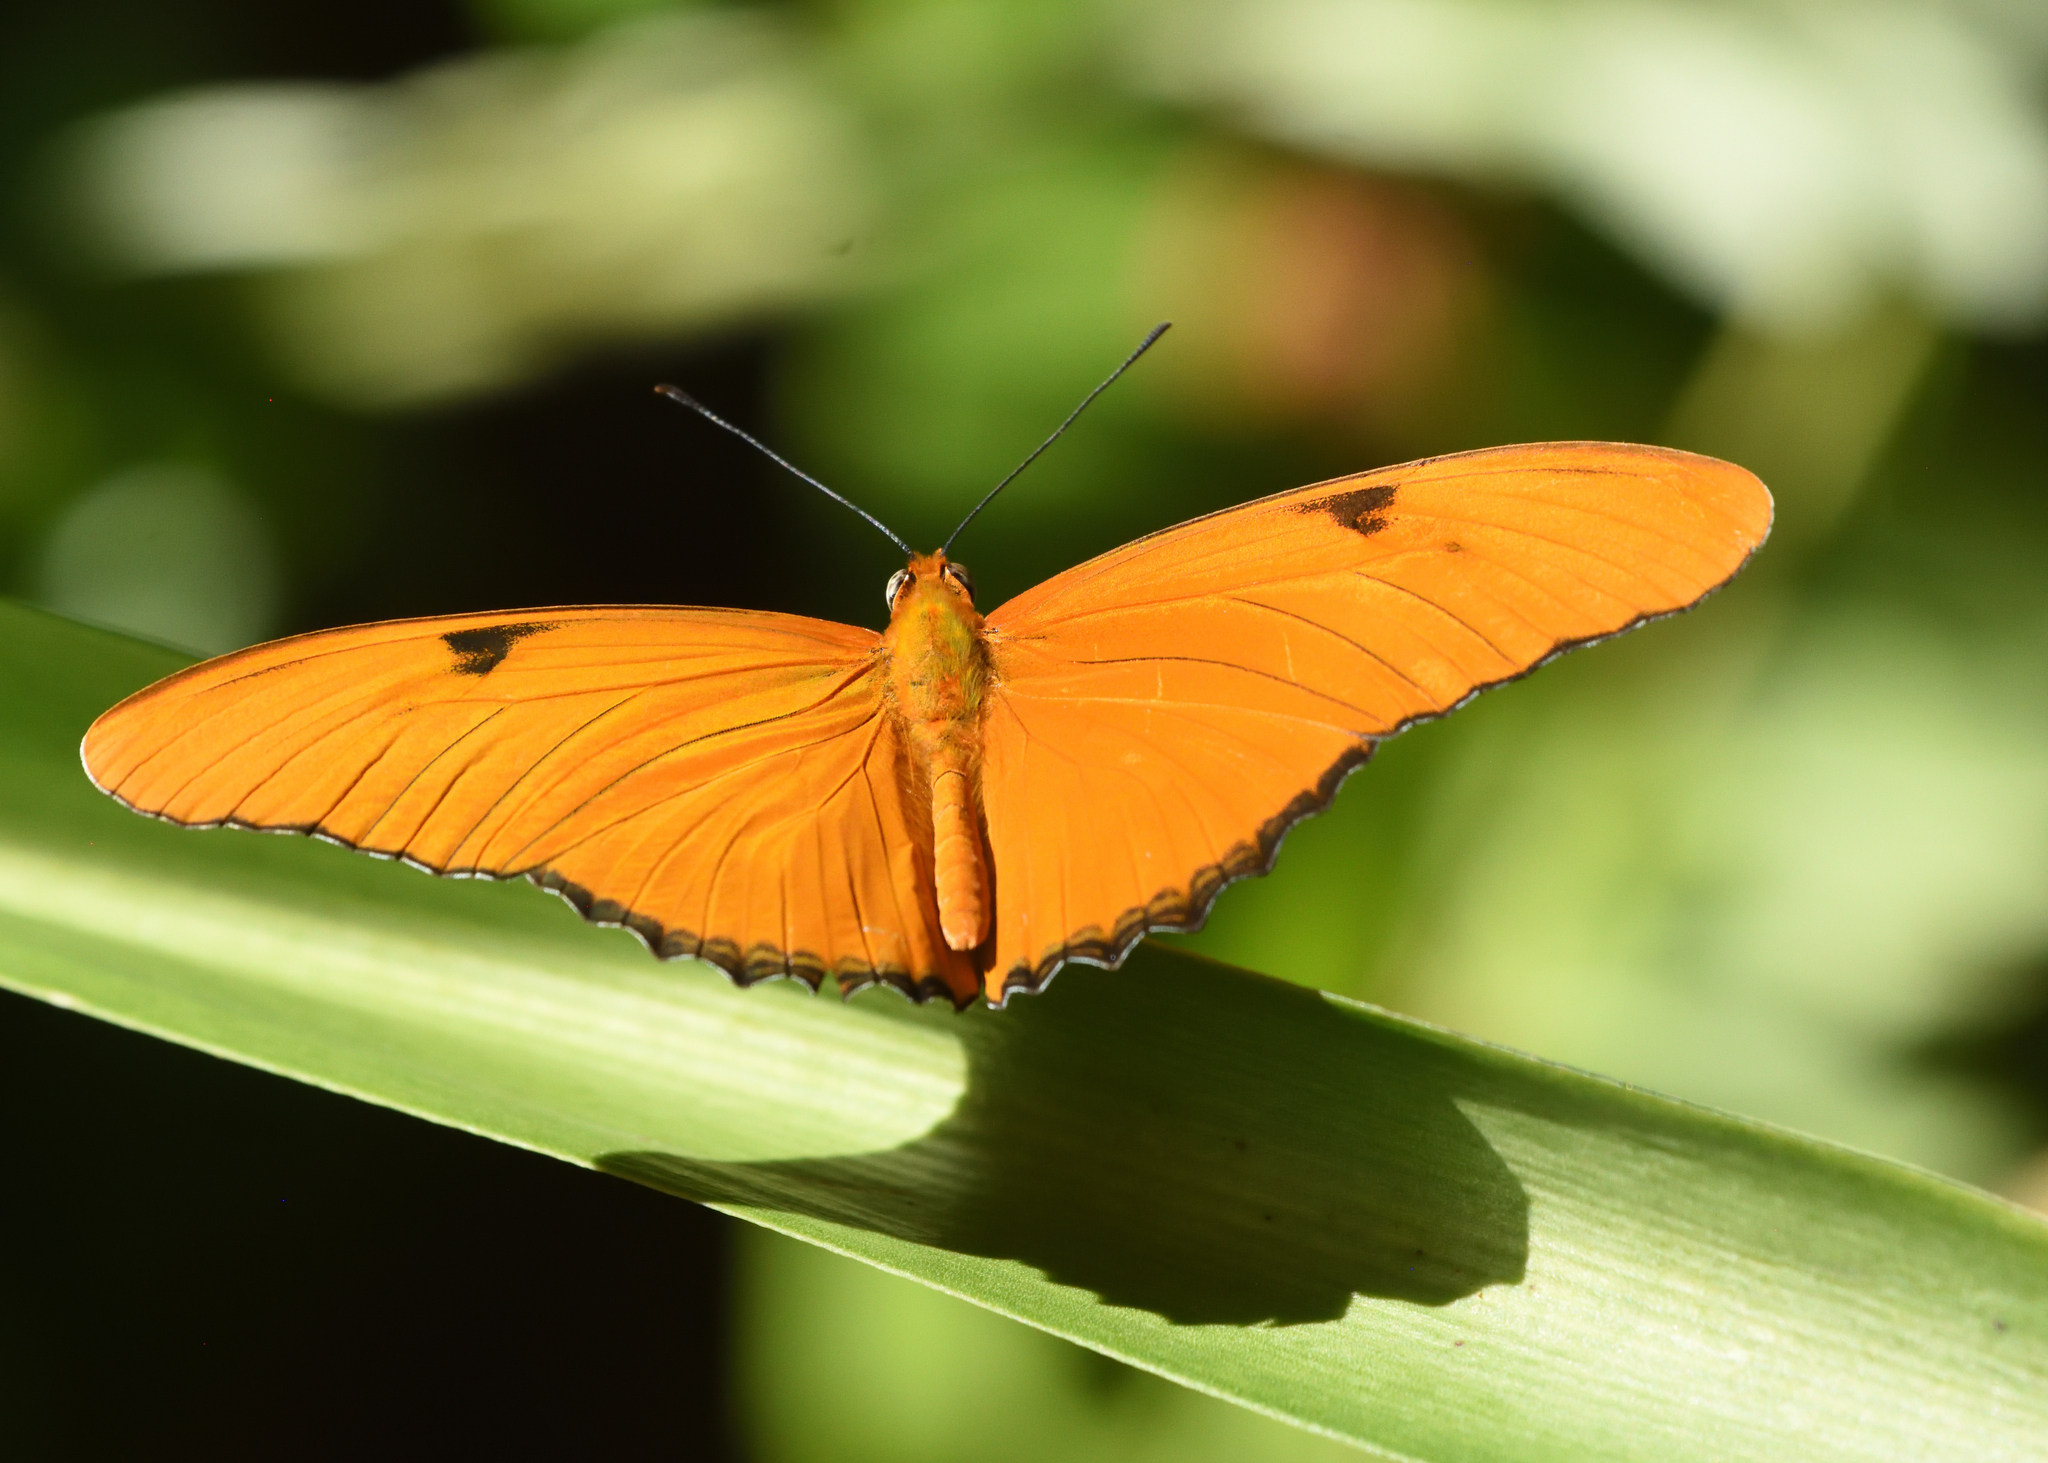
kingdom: Animalia
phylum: Arthropoda
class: Insecta
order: Lepidoptera
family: Nymphalidae
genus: Dryas
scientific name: Dryas iulia
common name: Flambeau
